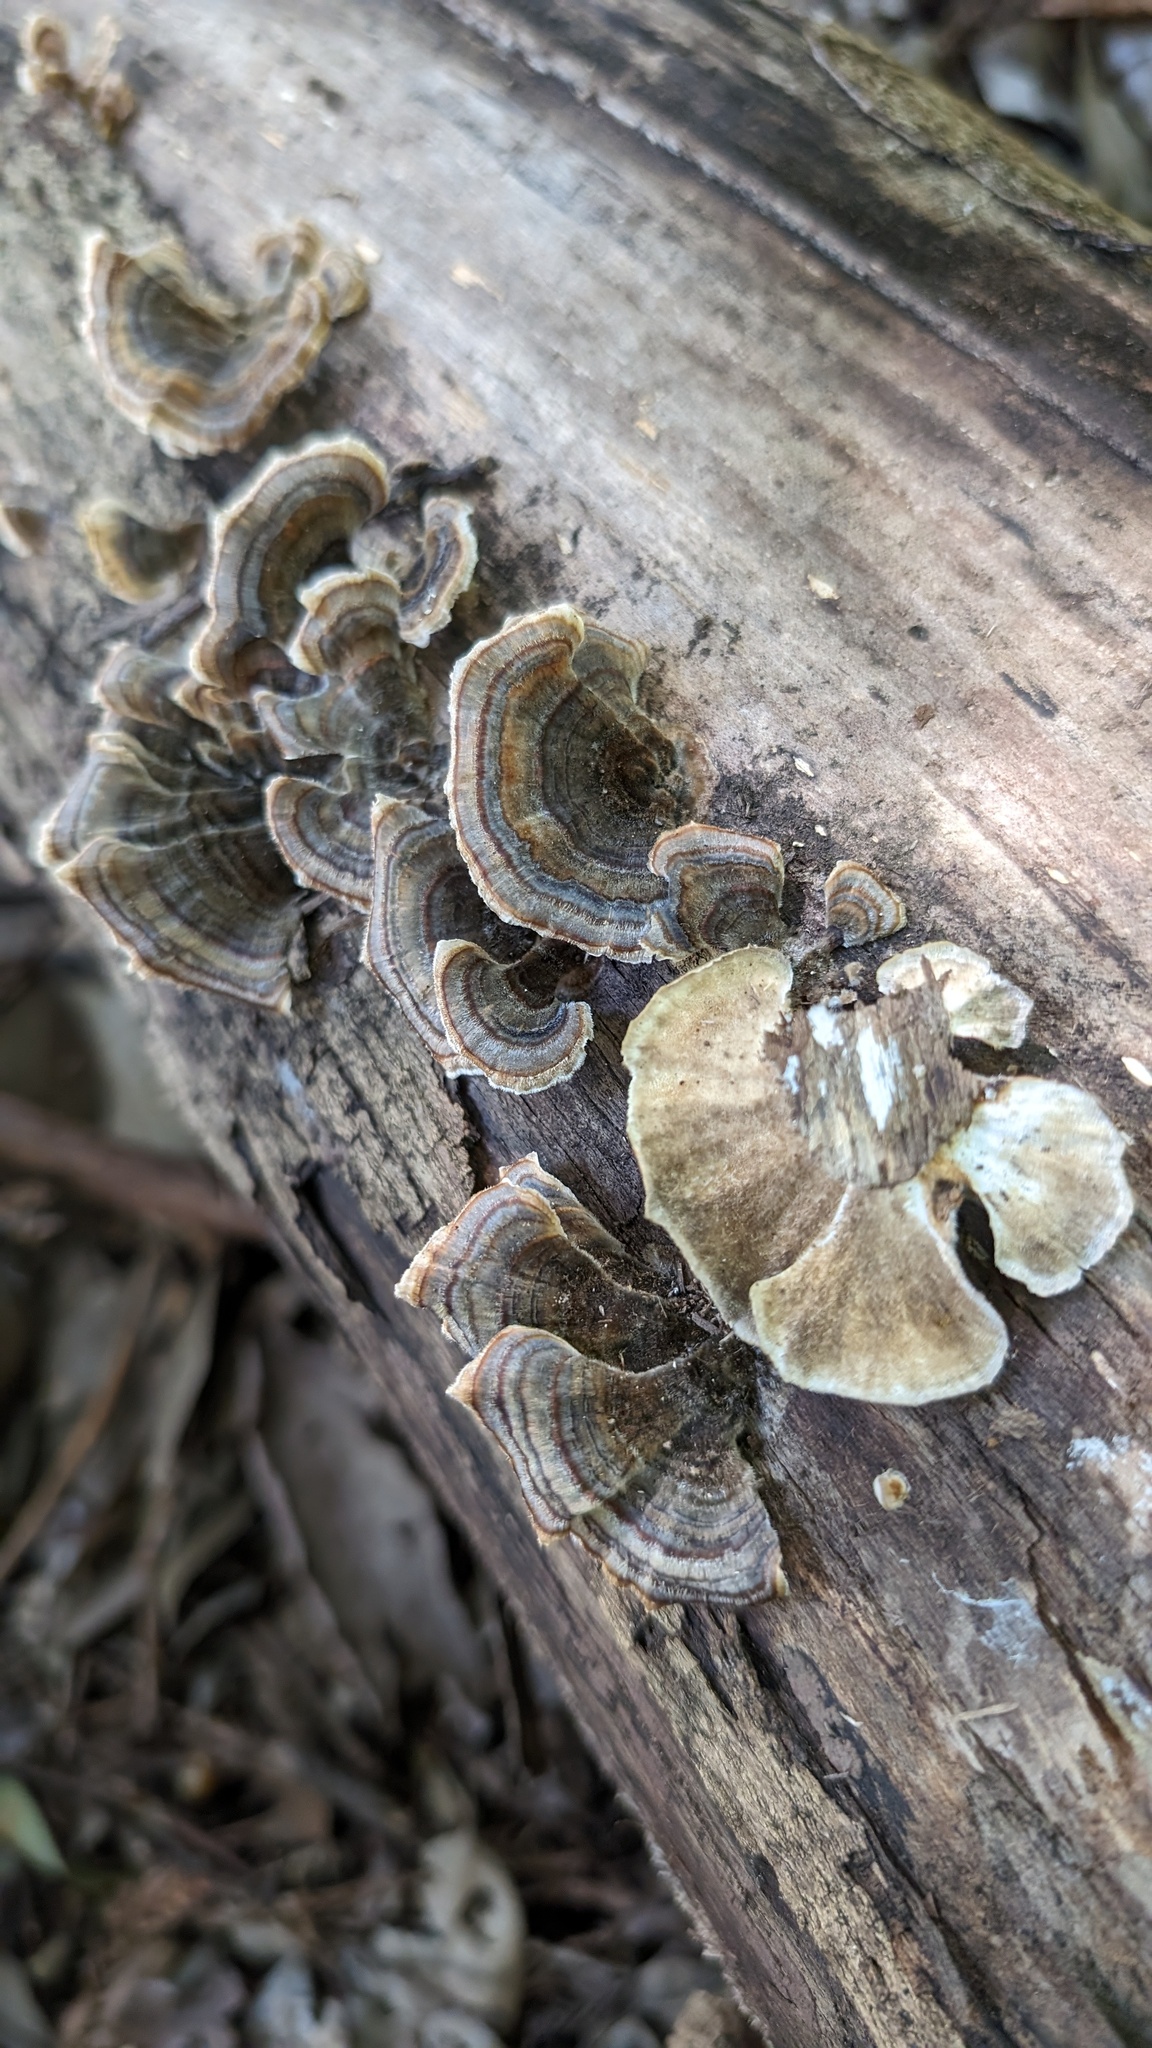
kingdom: Fungi
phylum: Basidiomycota
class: Agaricomycetes
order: Polyporales
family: Polyporaceae
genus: Trametes
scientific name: Trametes versicolor
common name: Turkeytail
